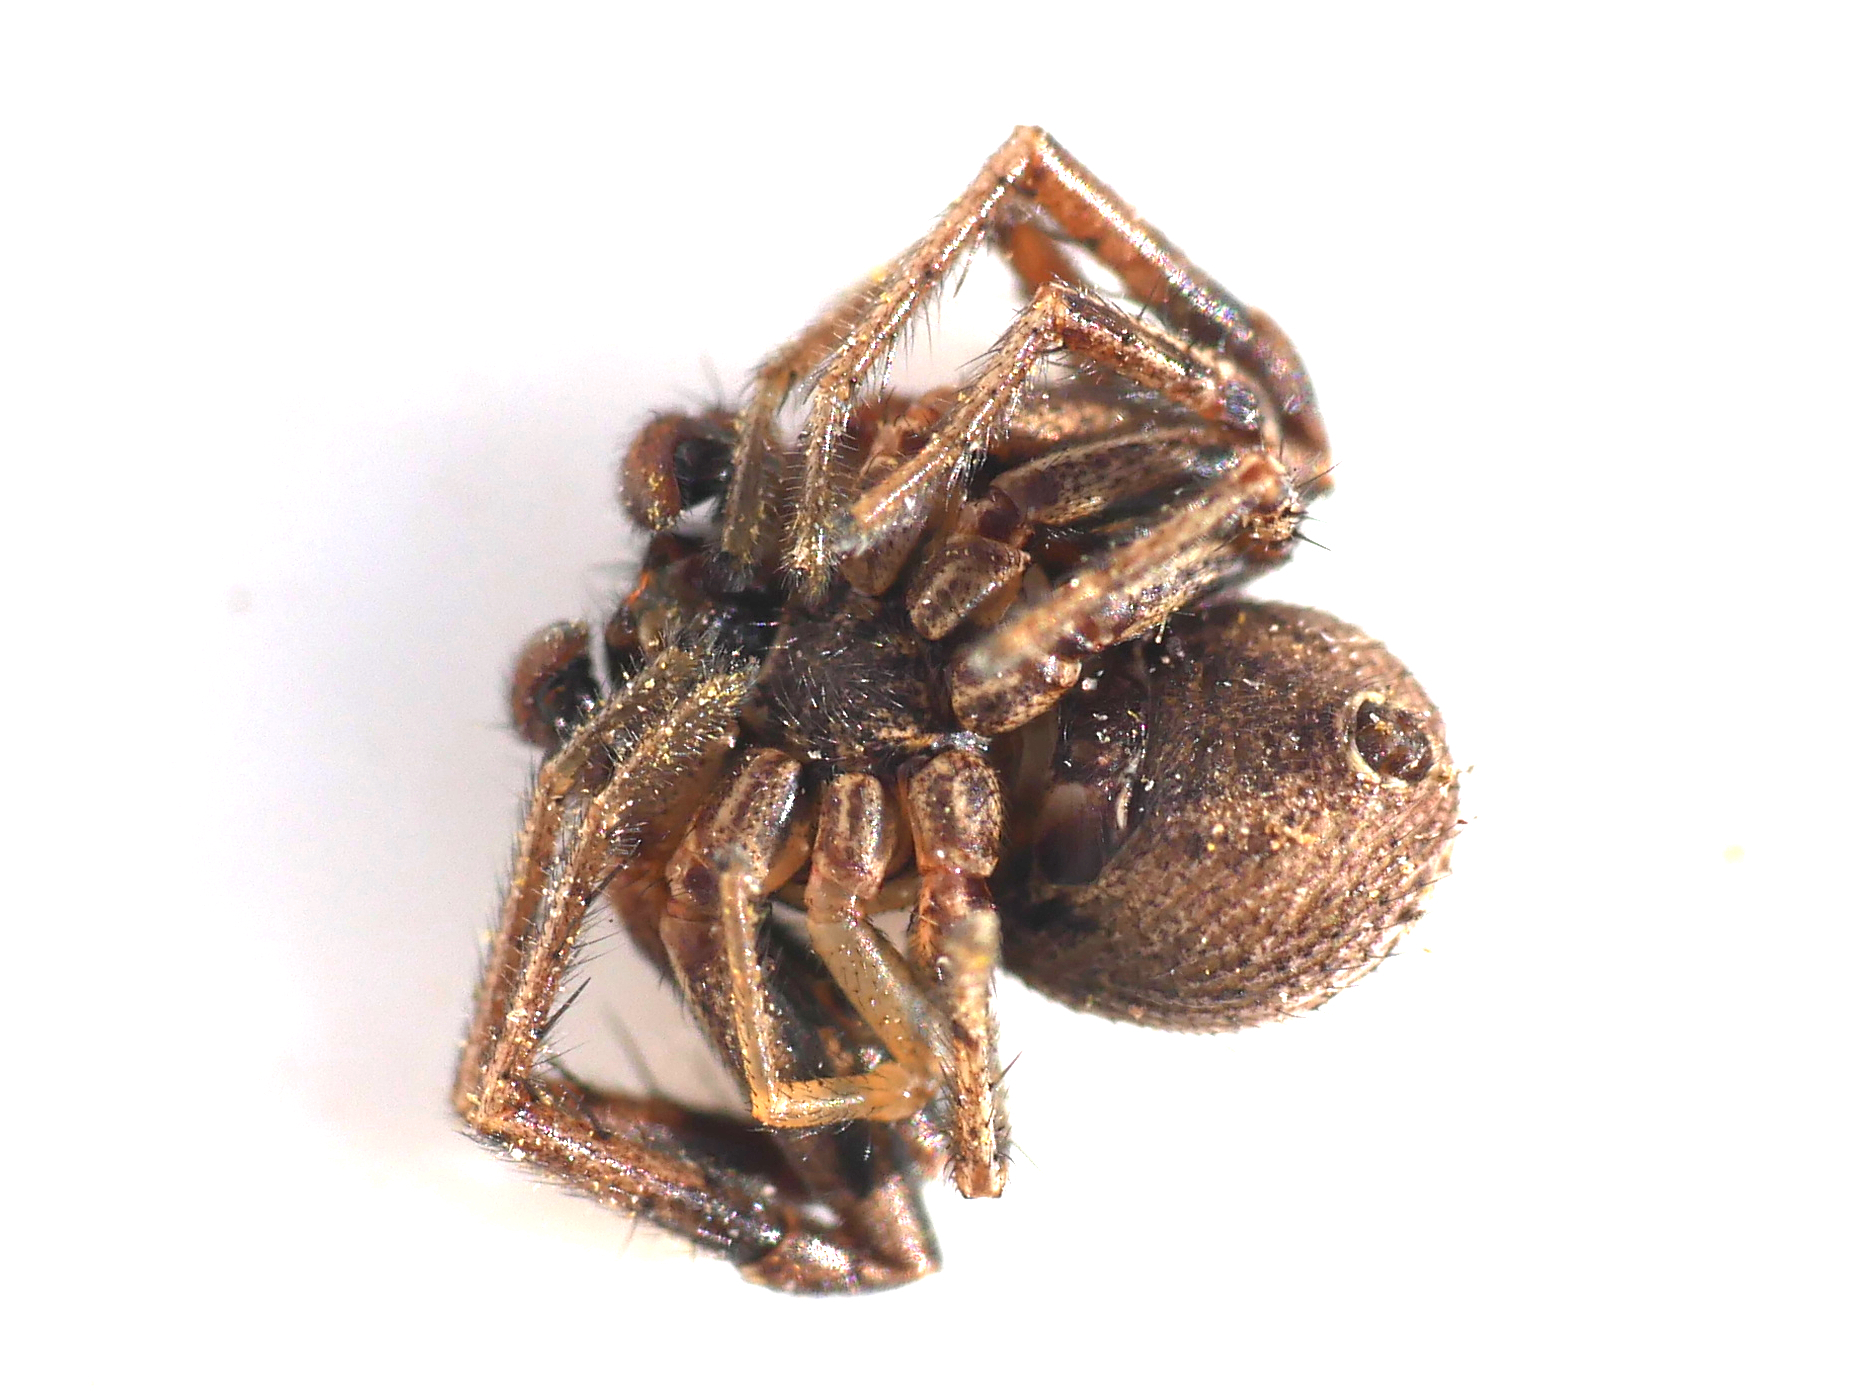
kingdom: Animalia
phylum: Arthropoda
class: Arachnida
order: Araneae
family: Thomisidae
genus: Xysticus
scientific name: Xysticus kochi
